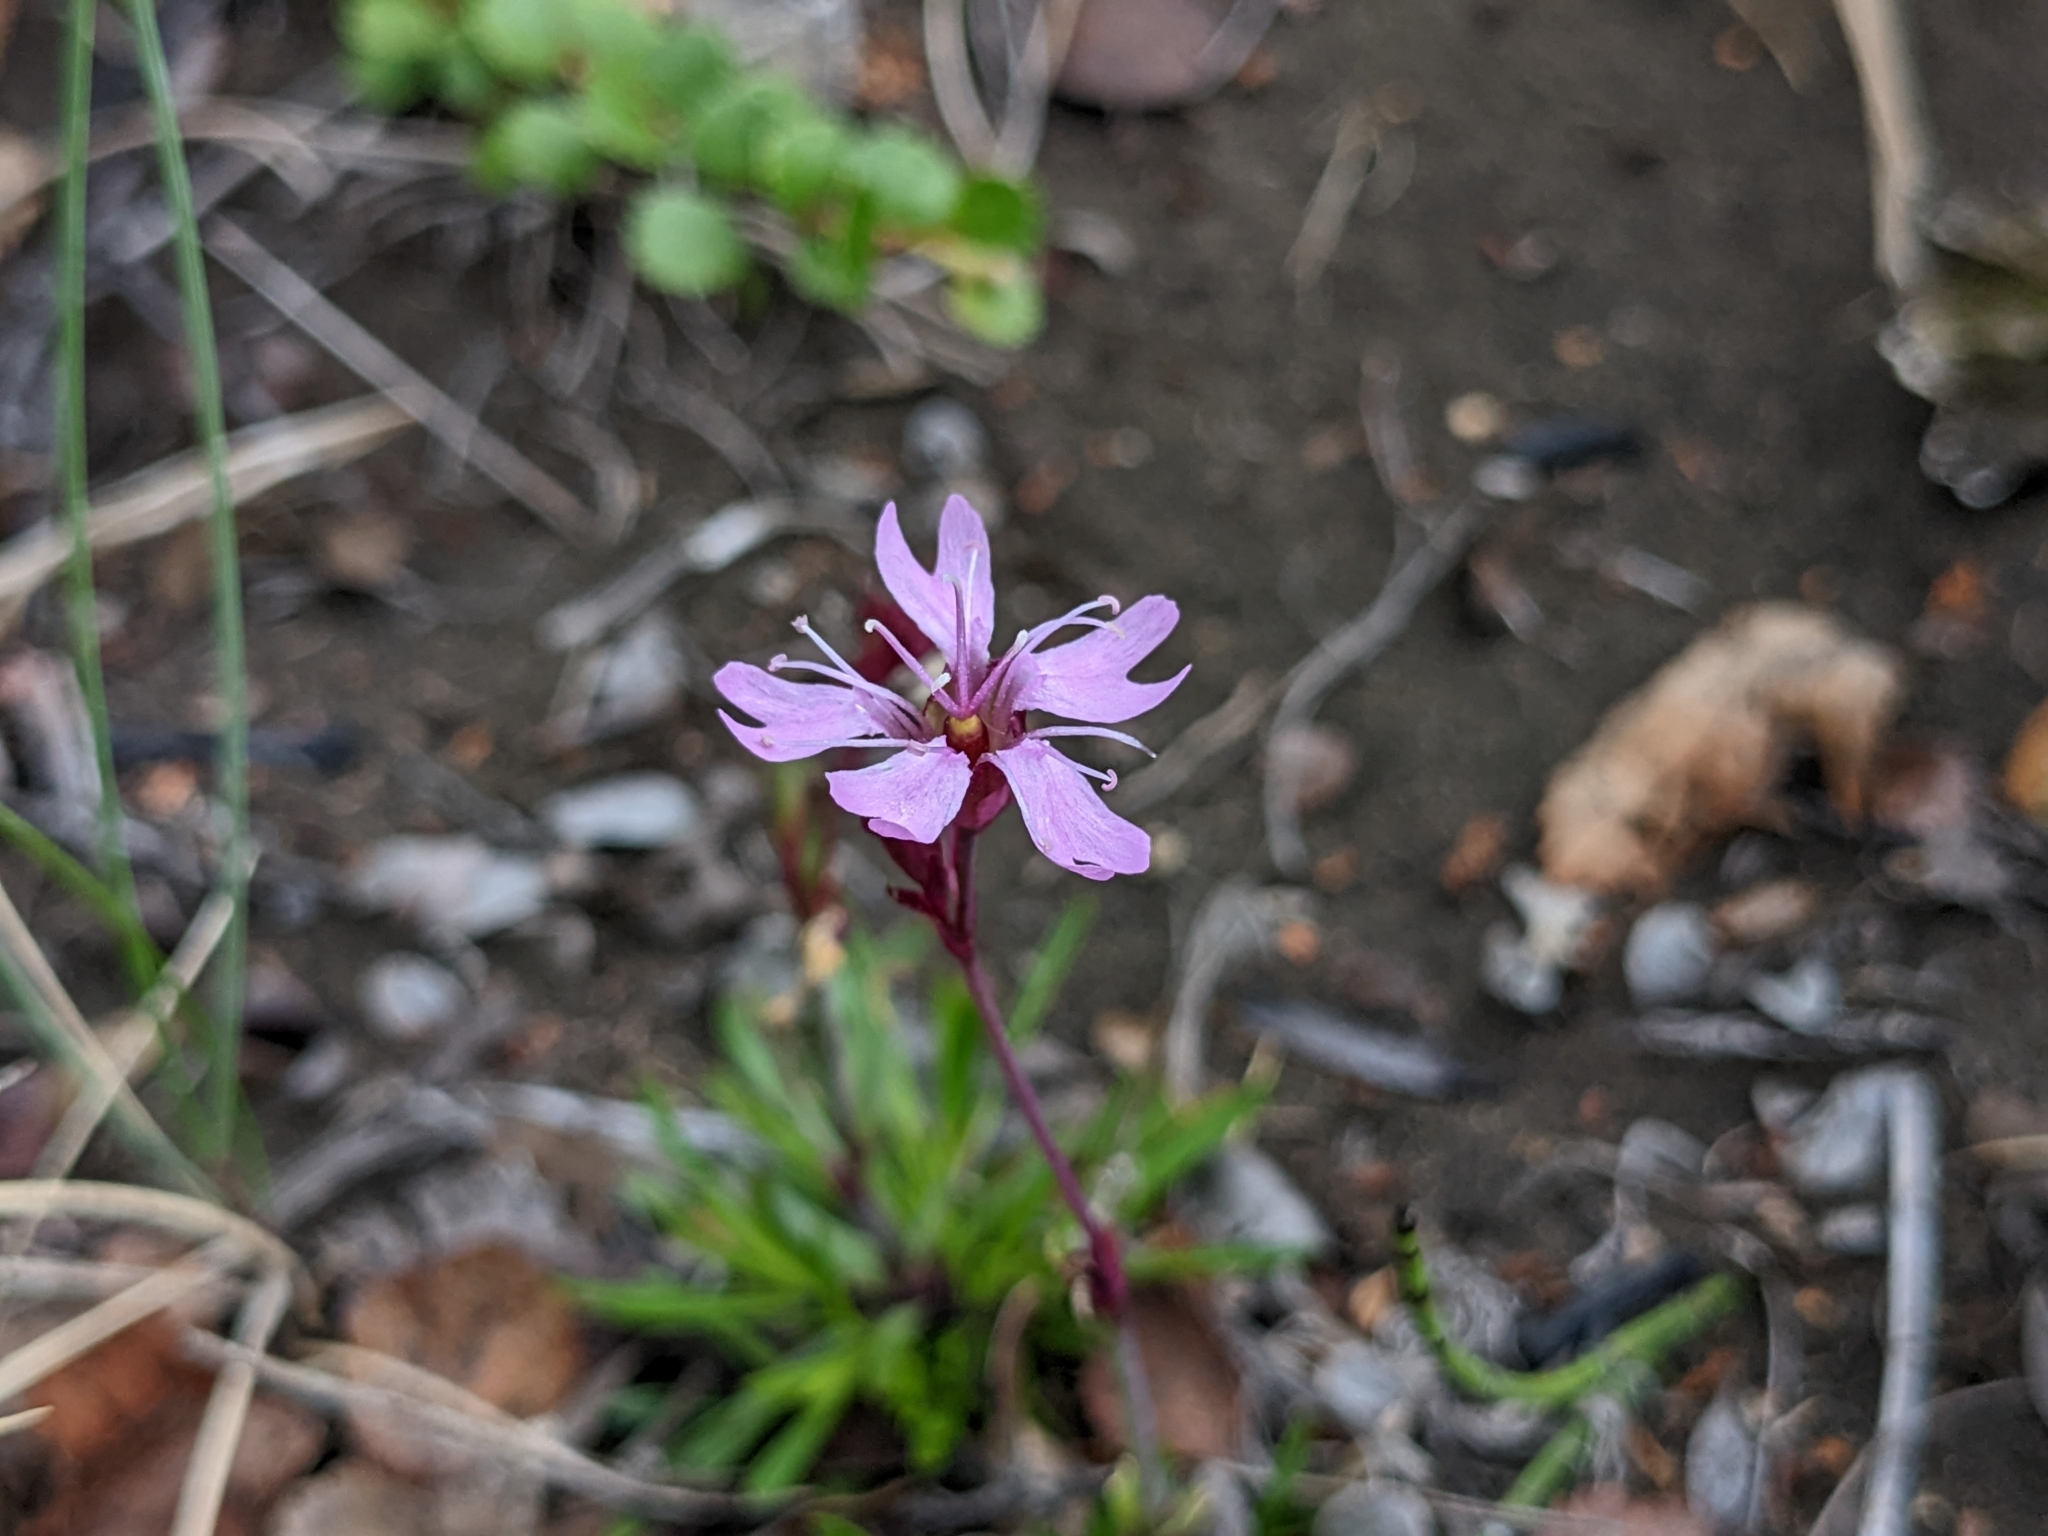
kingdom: Plantae
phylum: Tracheophyta
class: Magnoliopsida
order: Caryophyllales
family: Caryophyllaceae
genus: Viscaria
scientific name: Viscaria alpina
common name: Alpine campion
